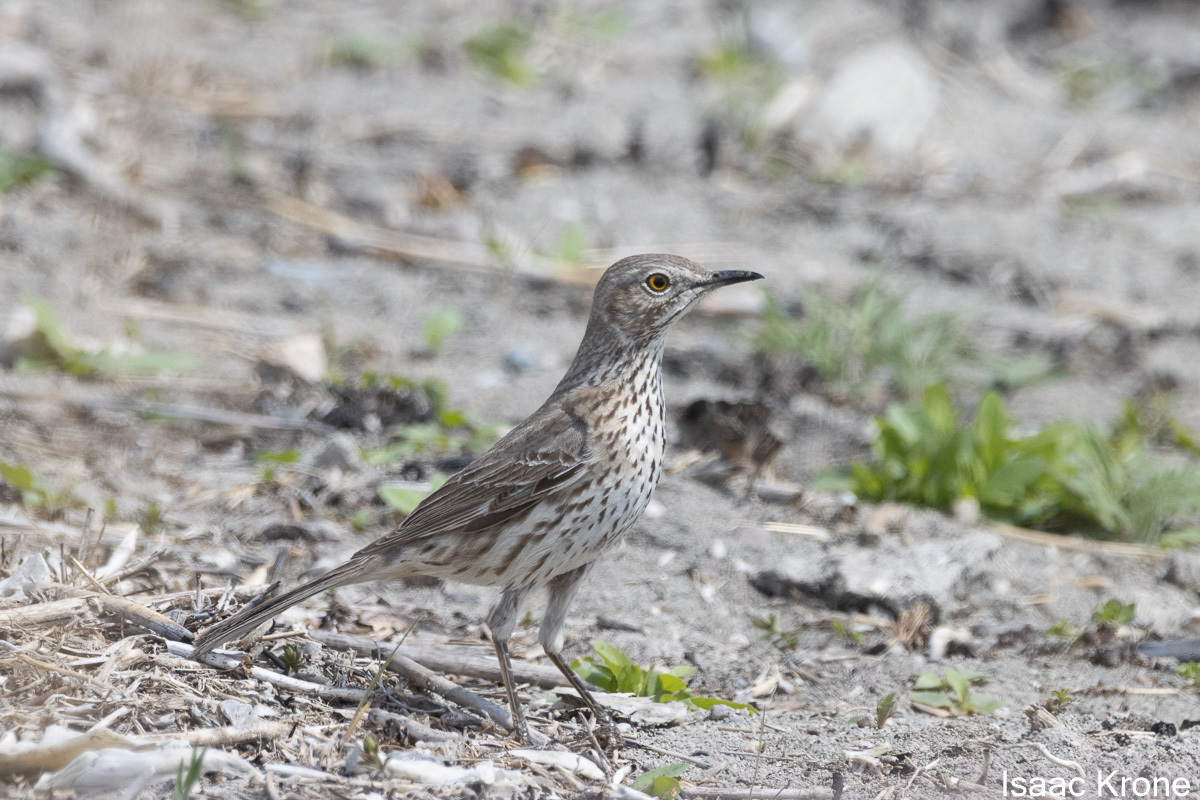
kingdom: Animalia
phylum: Chordata
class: Aves
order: Passeriformes
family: Mimidae
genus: Oreoscoptes
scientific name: Oreoscoptes montanus
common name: Sage thrasher
